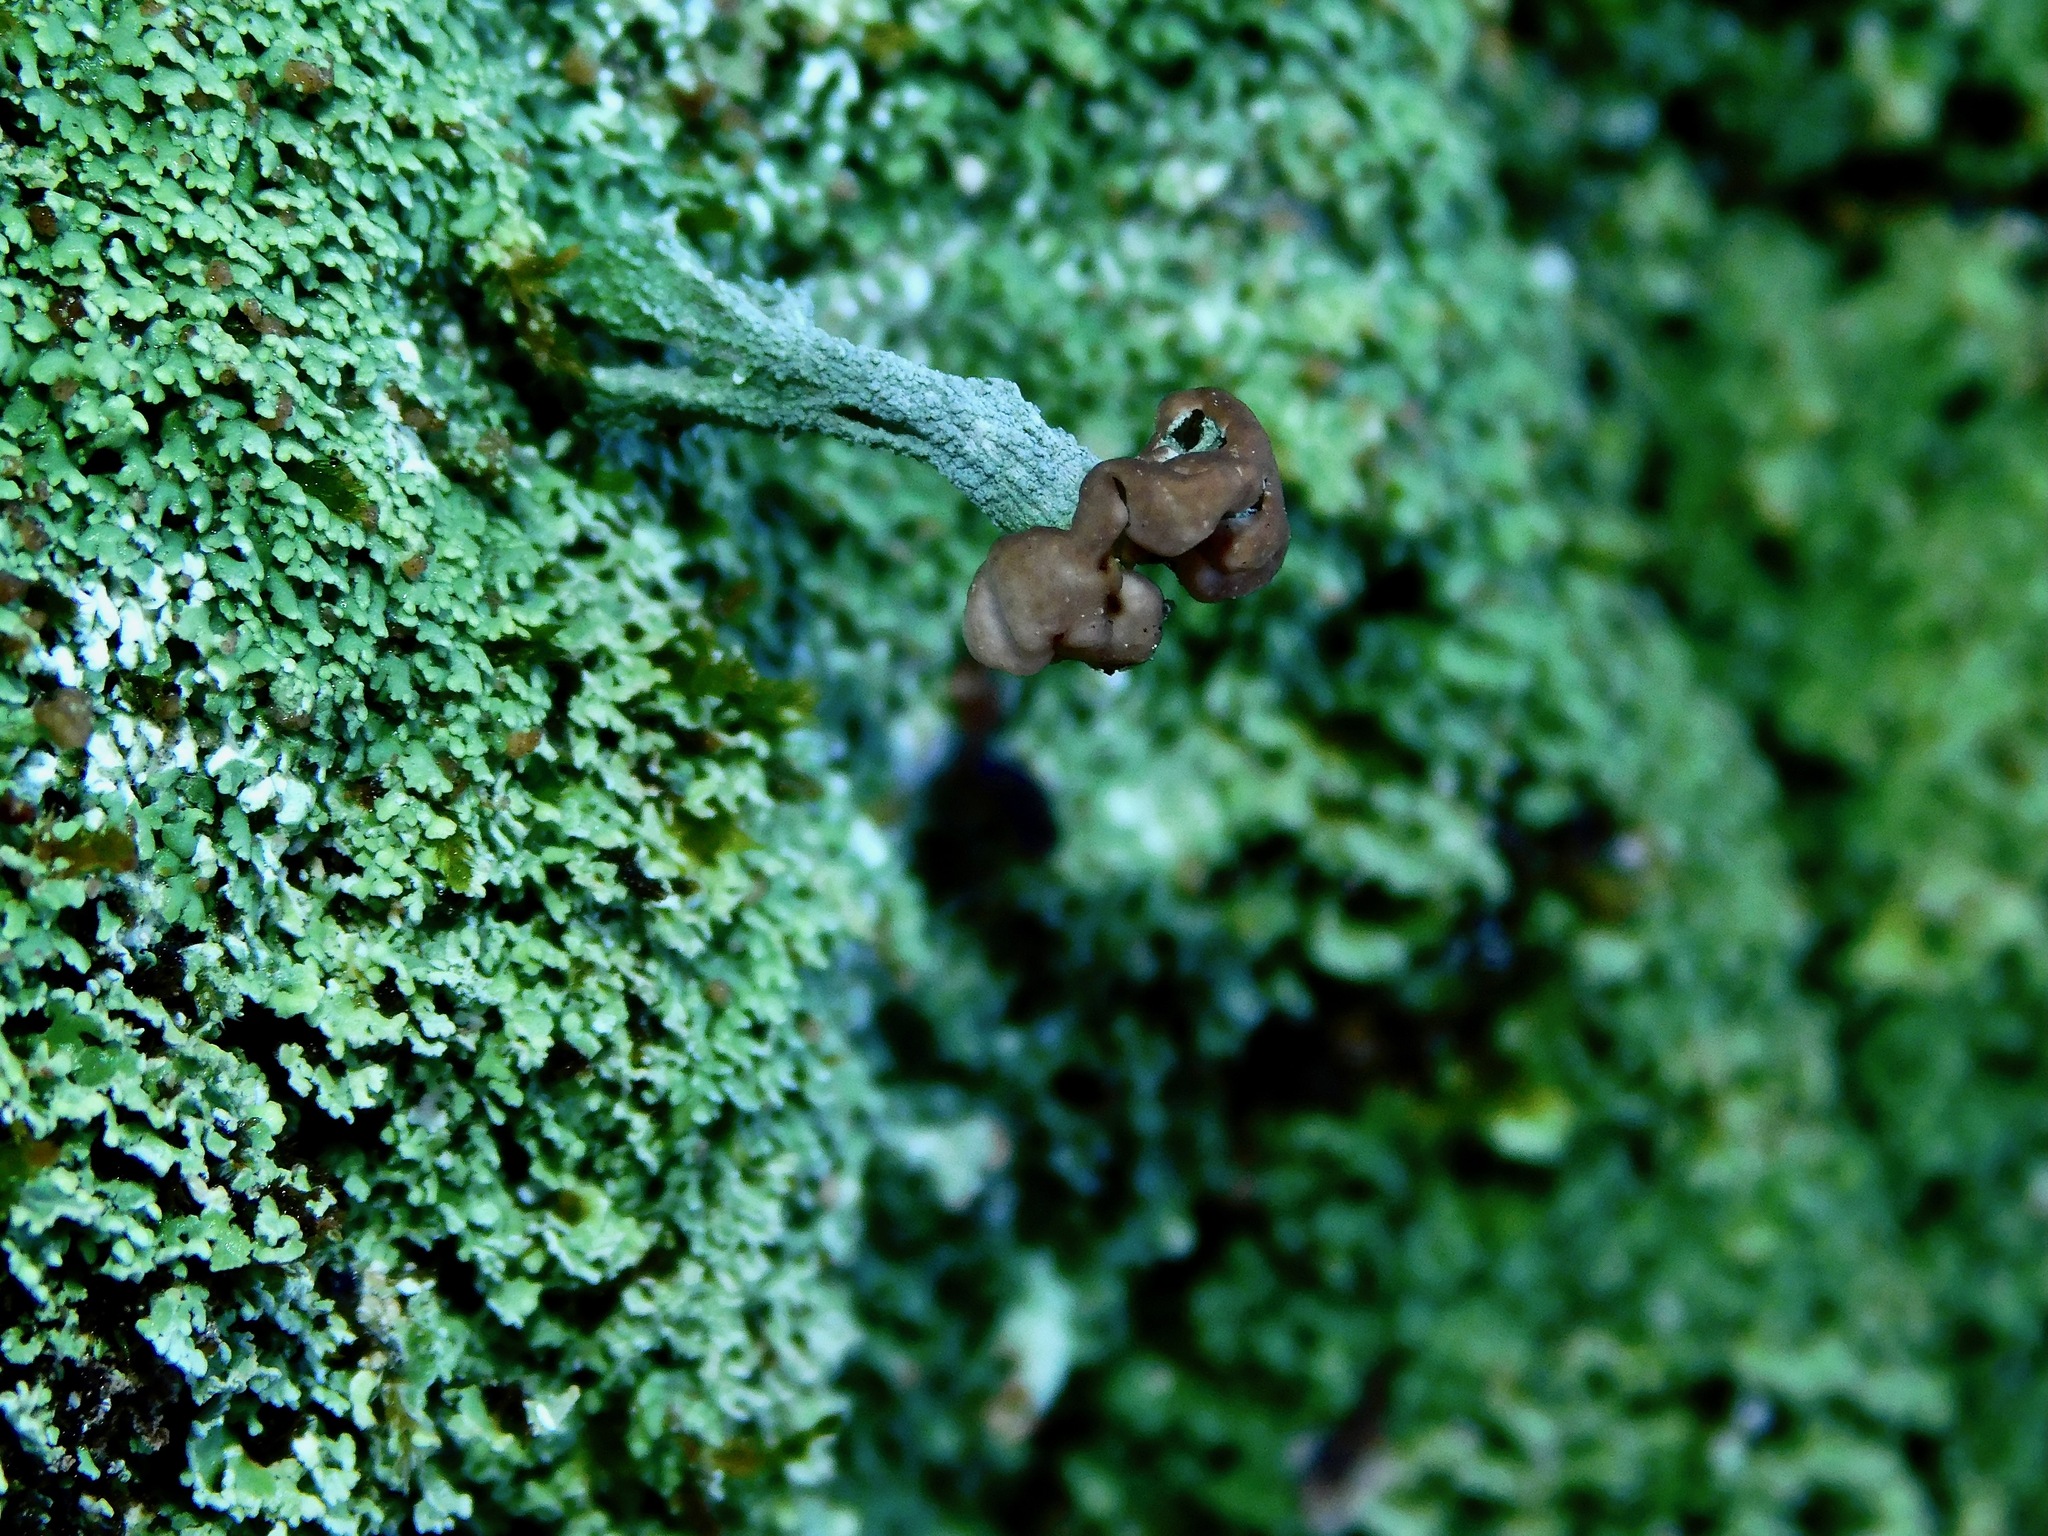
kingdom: Fungi
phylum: Ascomycota
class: Lecanoromycetes
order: Lecanorales
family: Cladoniaceae
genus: Cladonia
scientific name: Cladonia peziziformis
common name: Cup lichen
